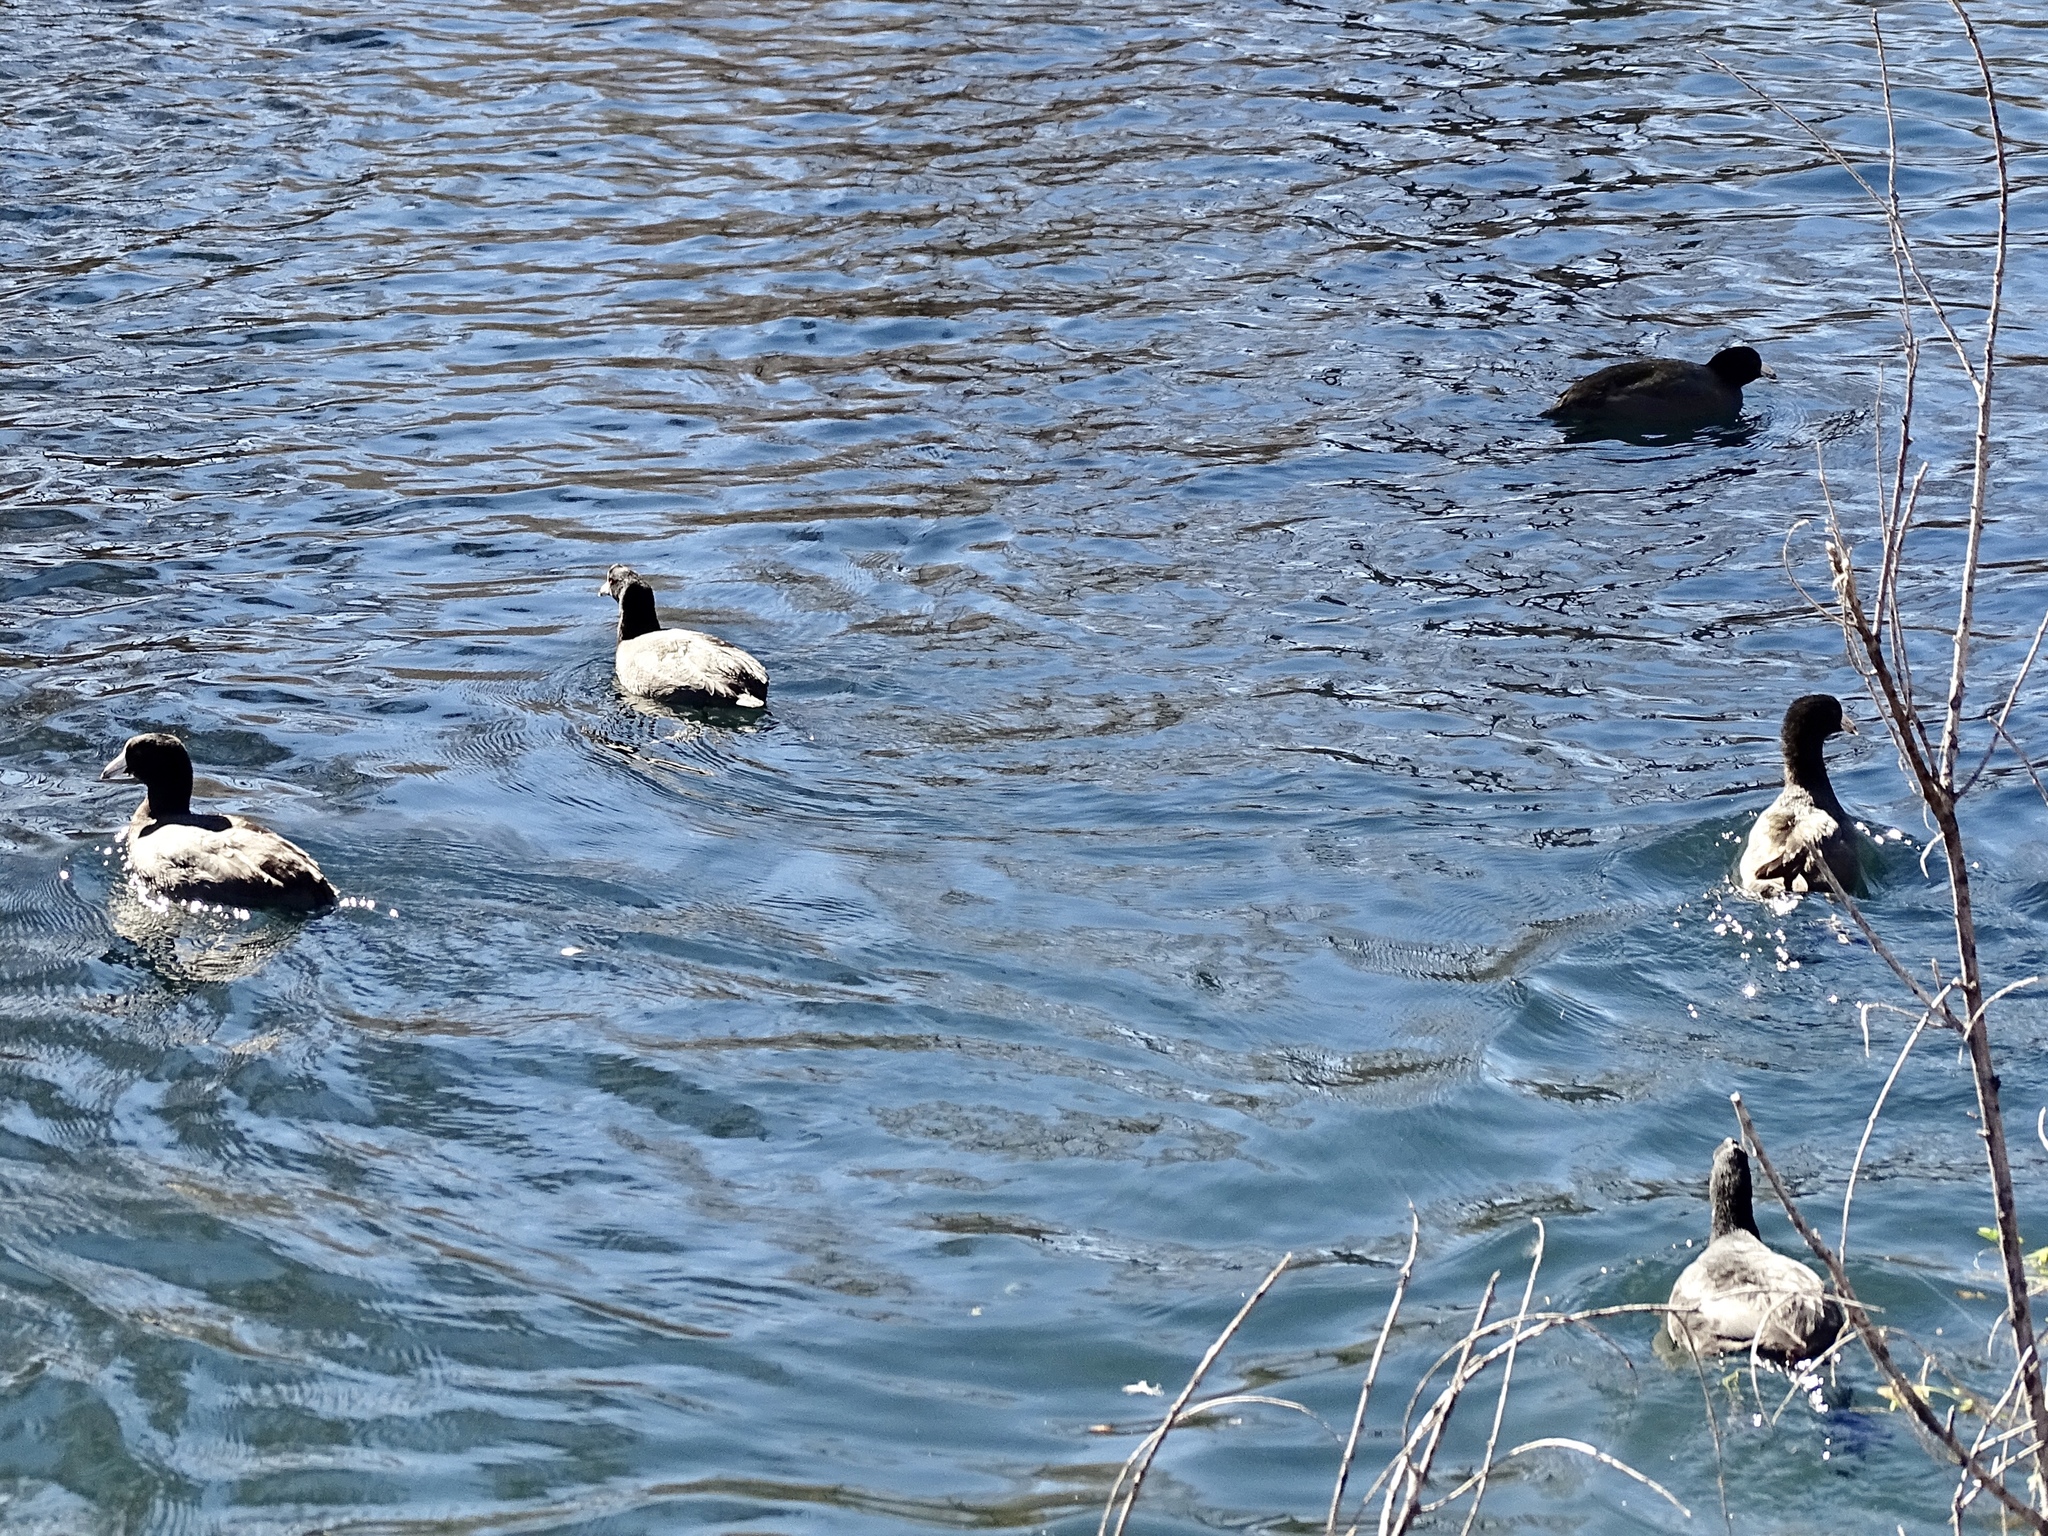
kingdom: Animalia
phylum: Chordata
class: Aves
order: Gruiformes
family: Rallidae
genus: Fulica
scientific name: Fulica americana
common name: American coot
